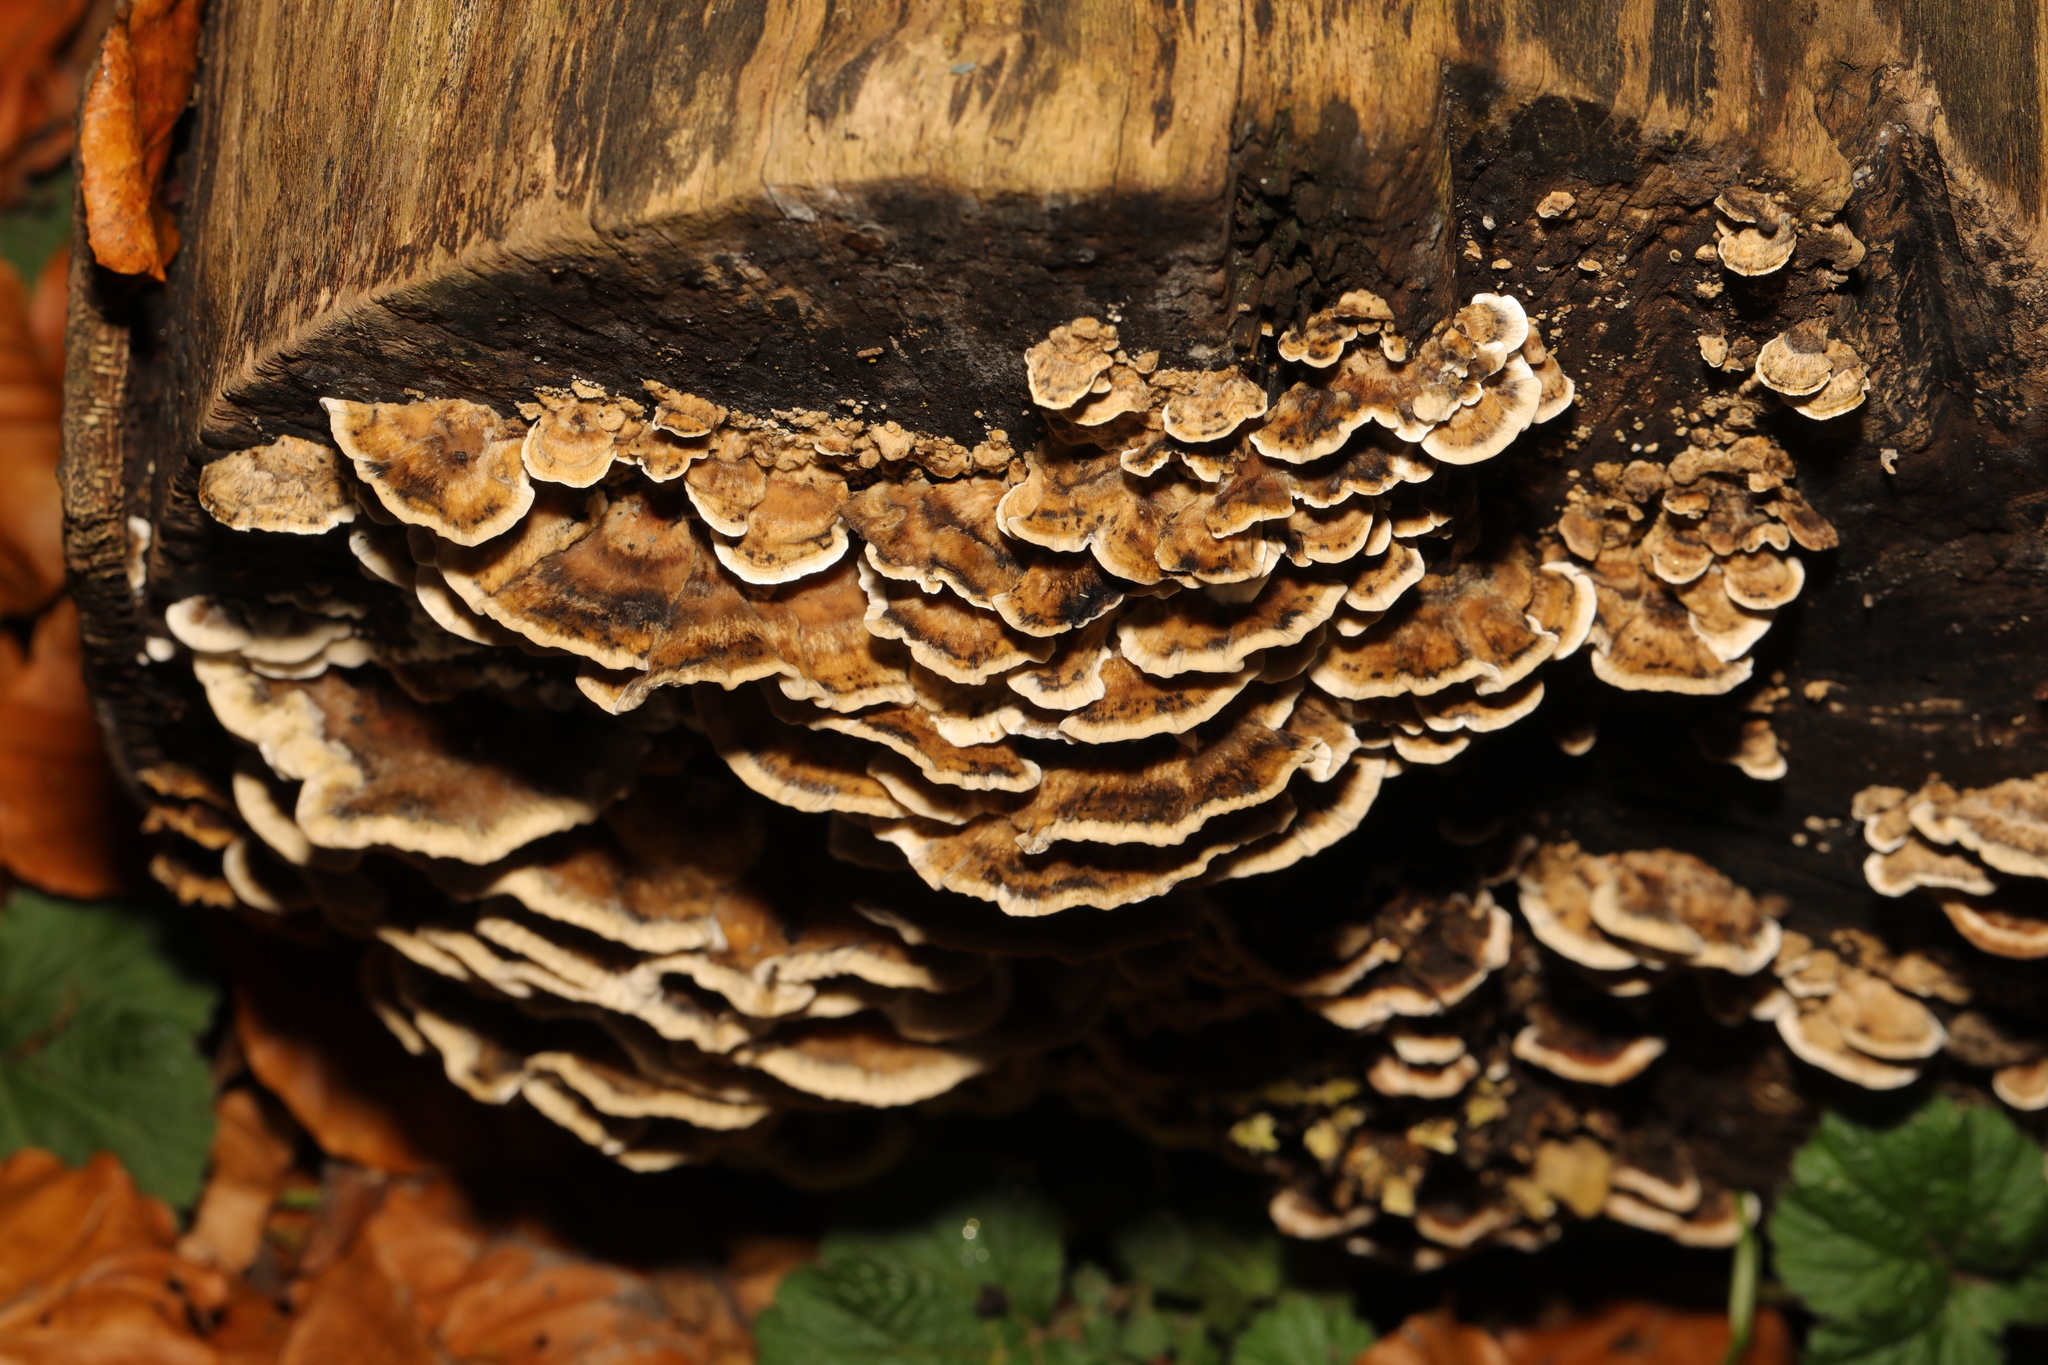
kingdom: Fungi
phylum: Basidiomycota
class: Agaricomycetes
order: Polyporales
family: Phanerochaetaceae
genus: Bjerkandera
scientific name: Bjerkandera adusta
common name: Smoky bracket
